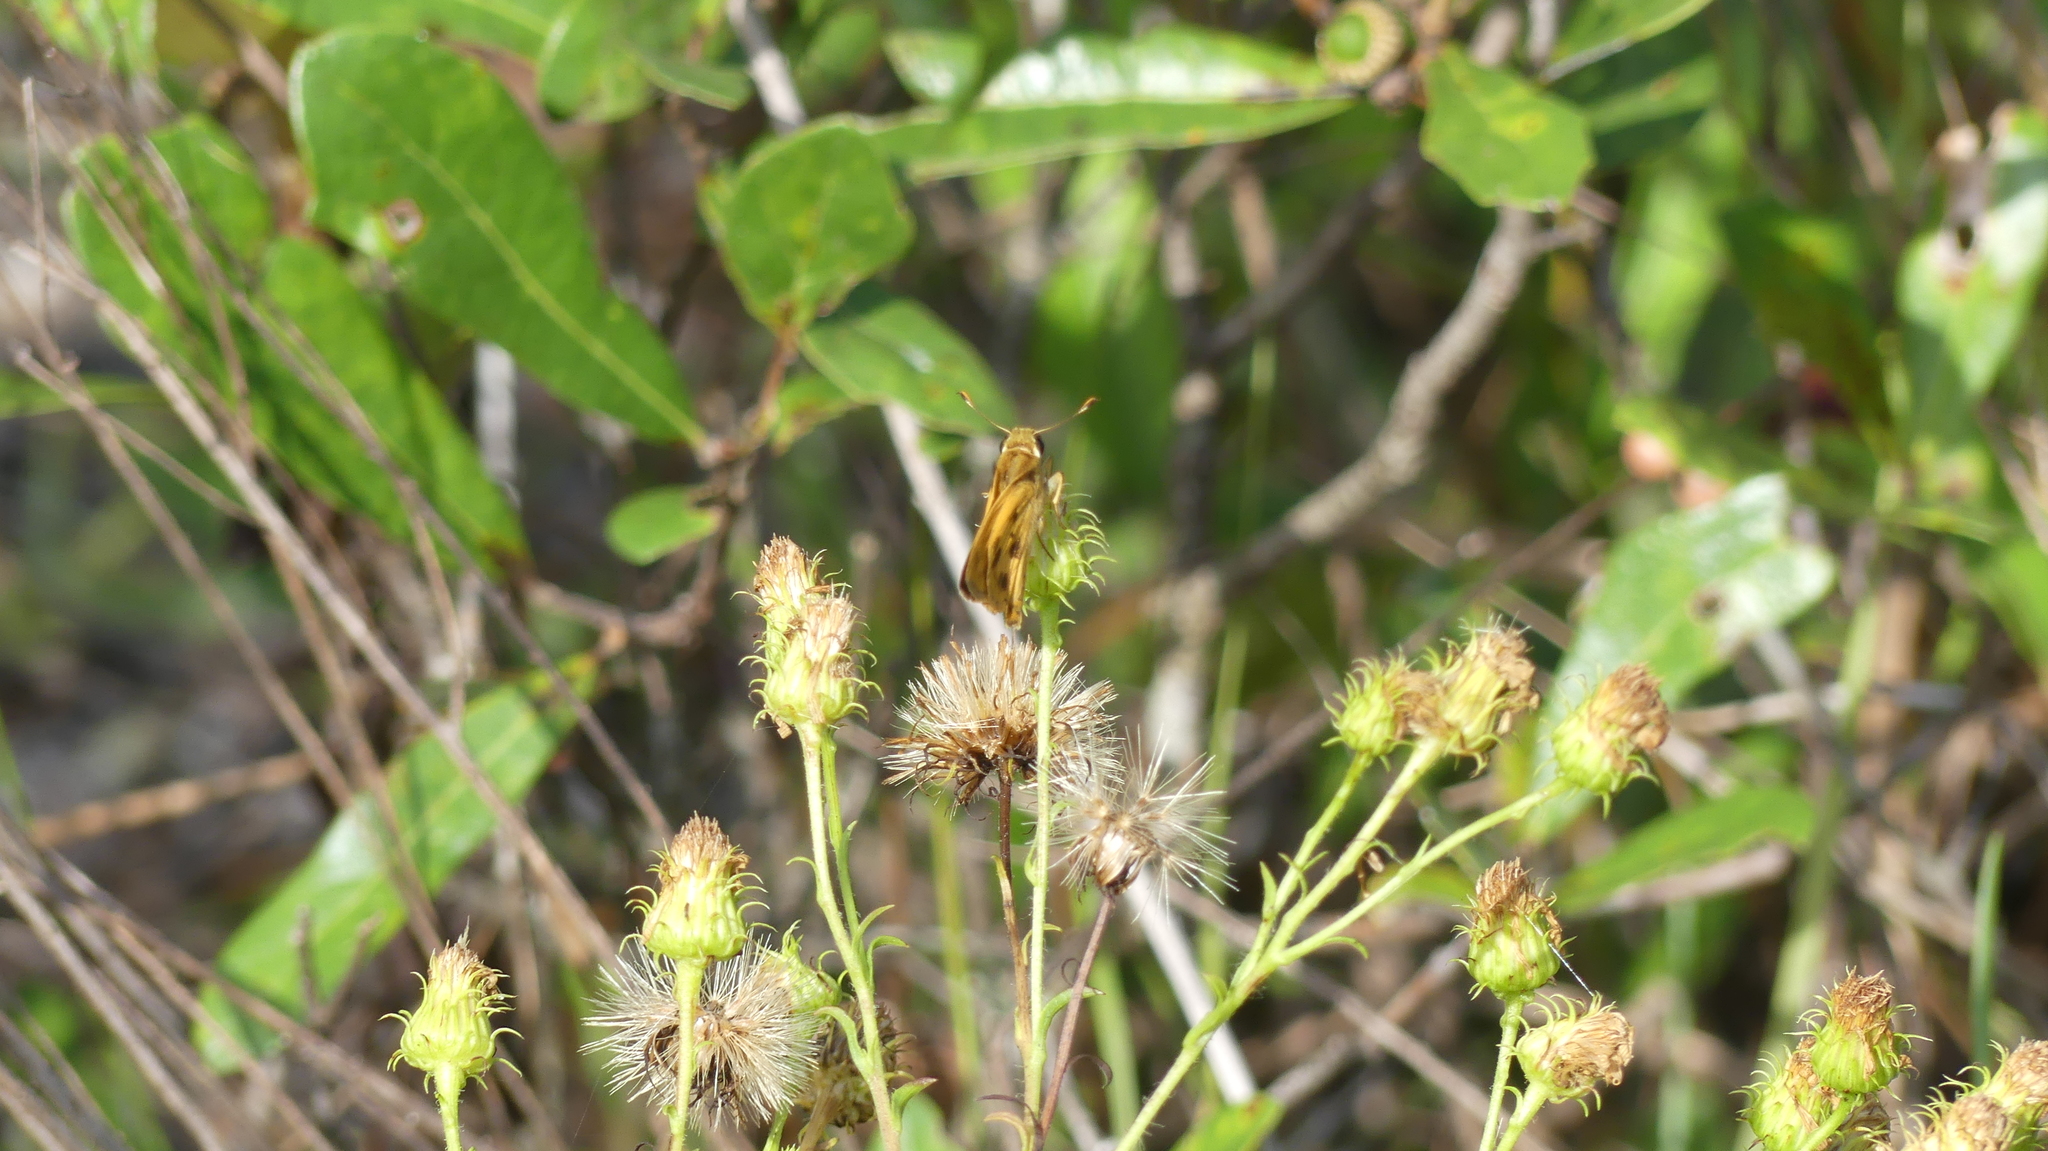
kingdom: Animalia
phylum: Arthropoda
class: Insecta
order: Lepidoptera
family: Hesperiidae
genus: Polites
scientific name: Polites vibex
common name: Whirlabout
